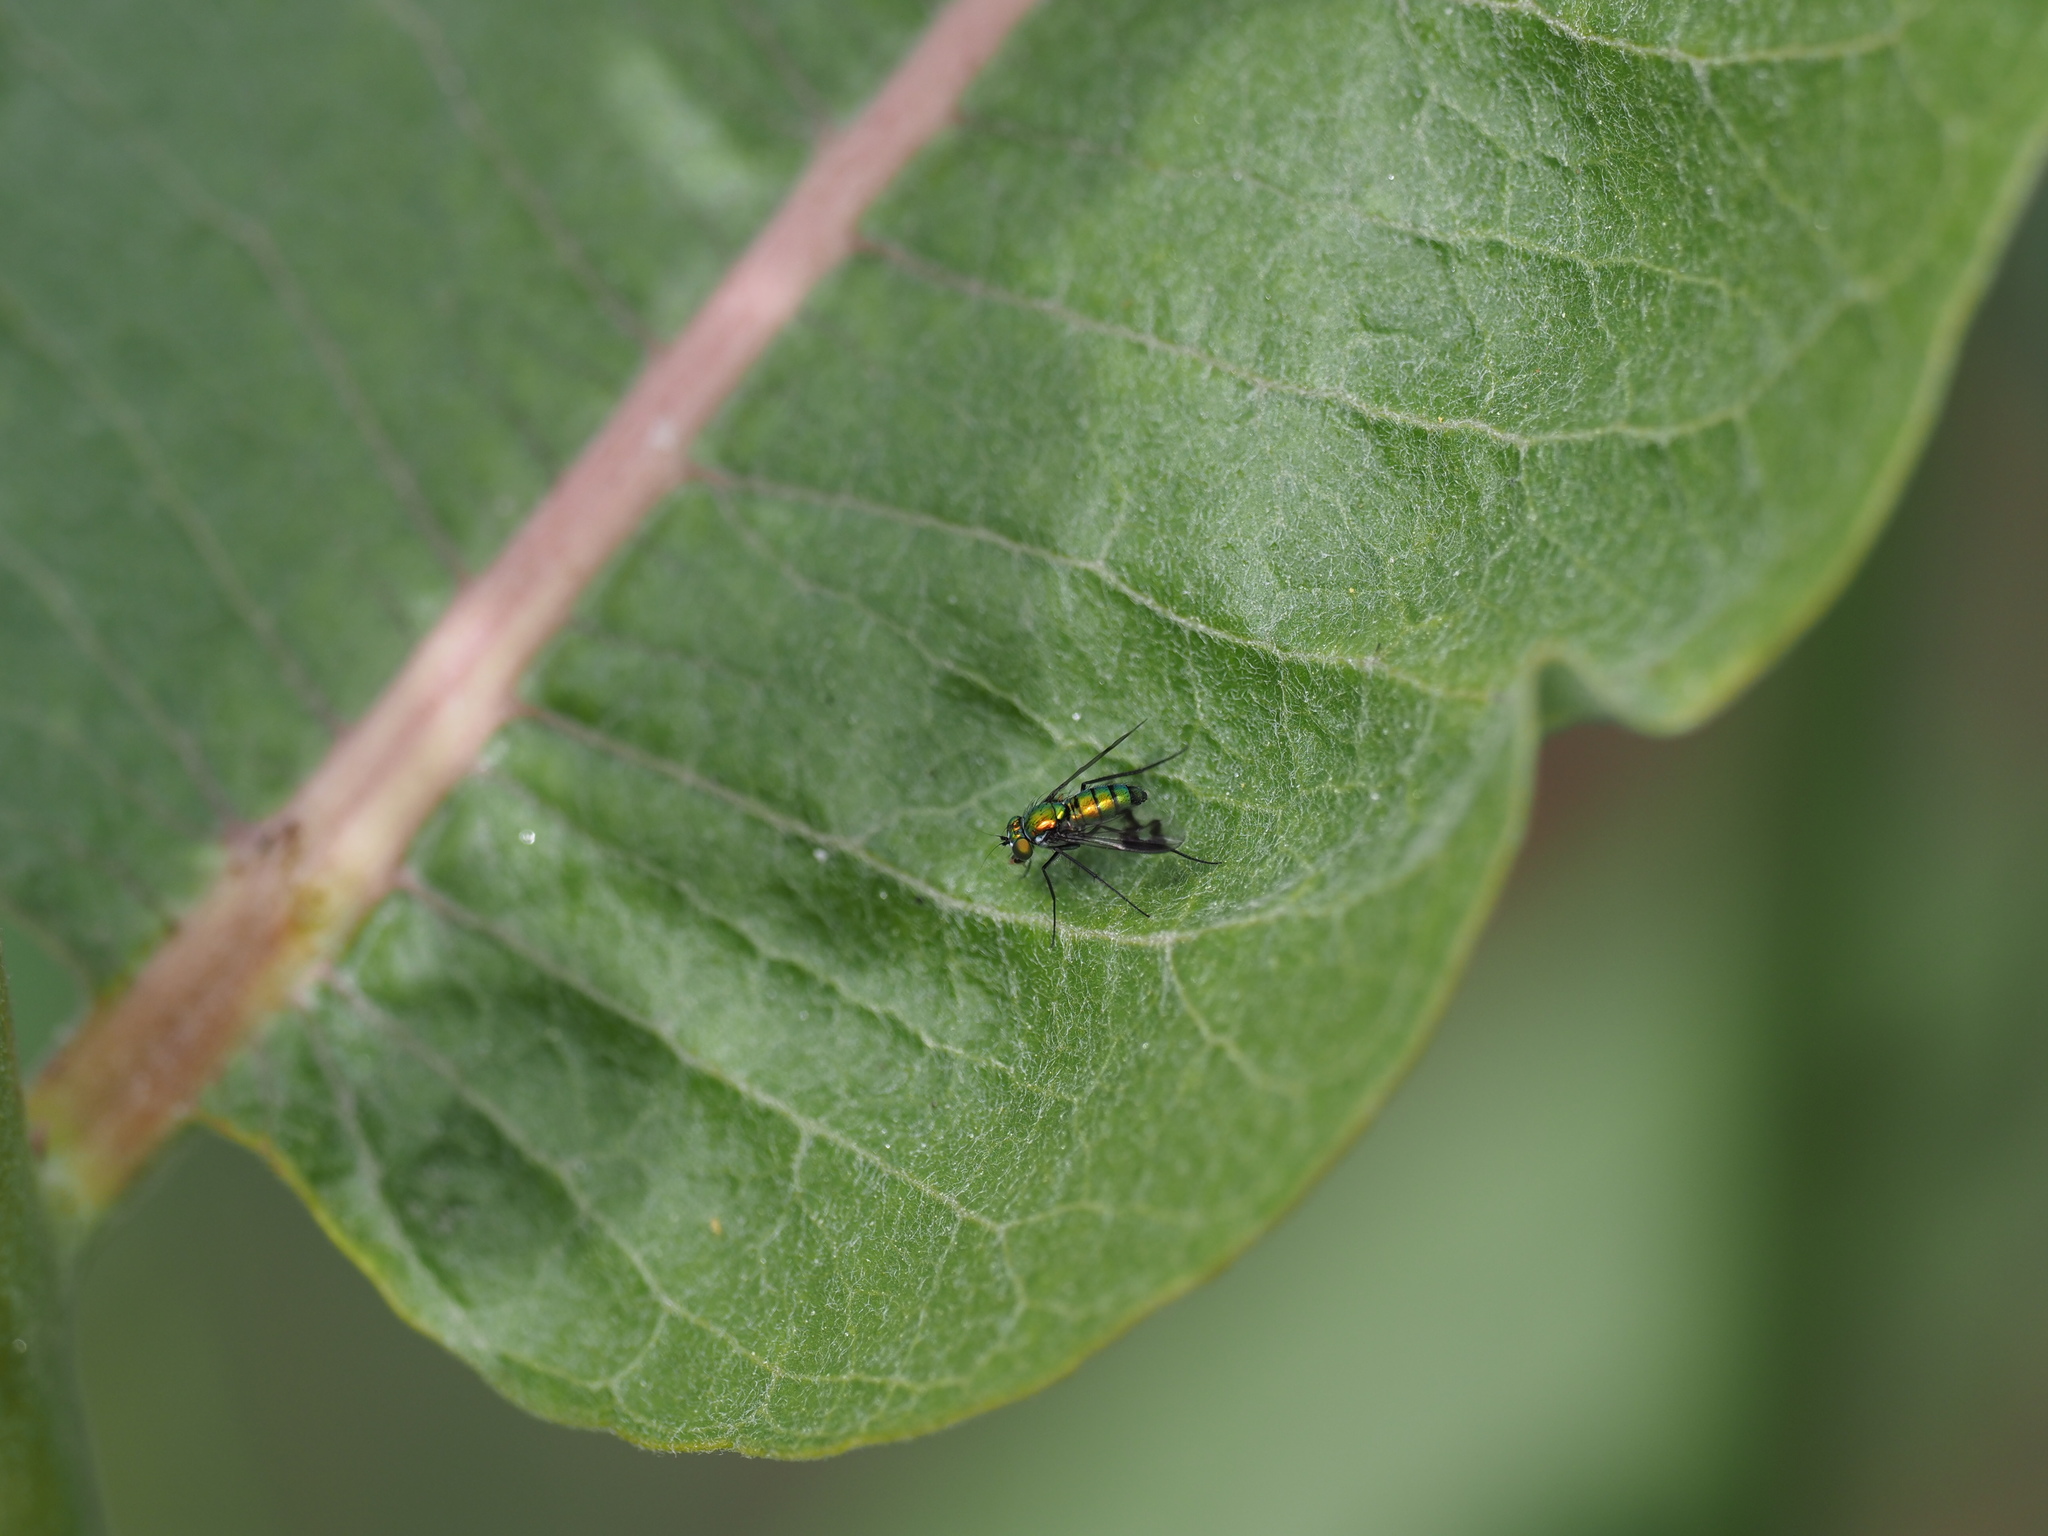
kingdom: Animalia
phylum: Arthropoda
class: Insecta
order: Diptera
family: Dolichopodidae
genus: Condylostylus
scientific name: Condylostylus occidentalis
